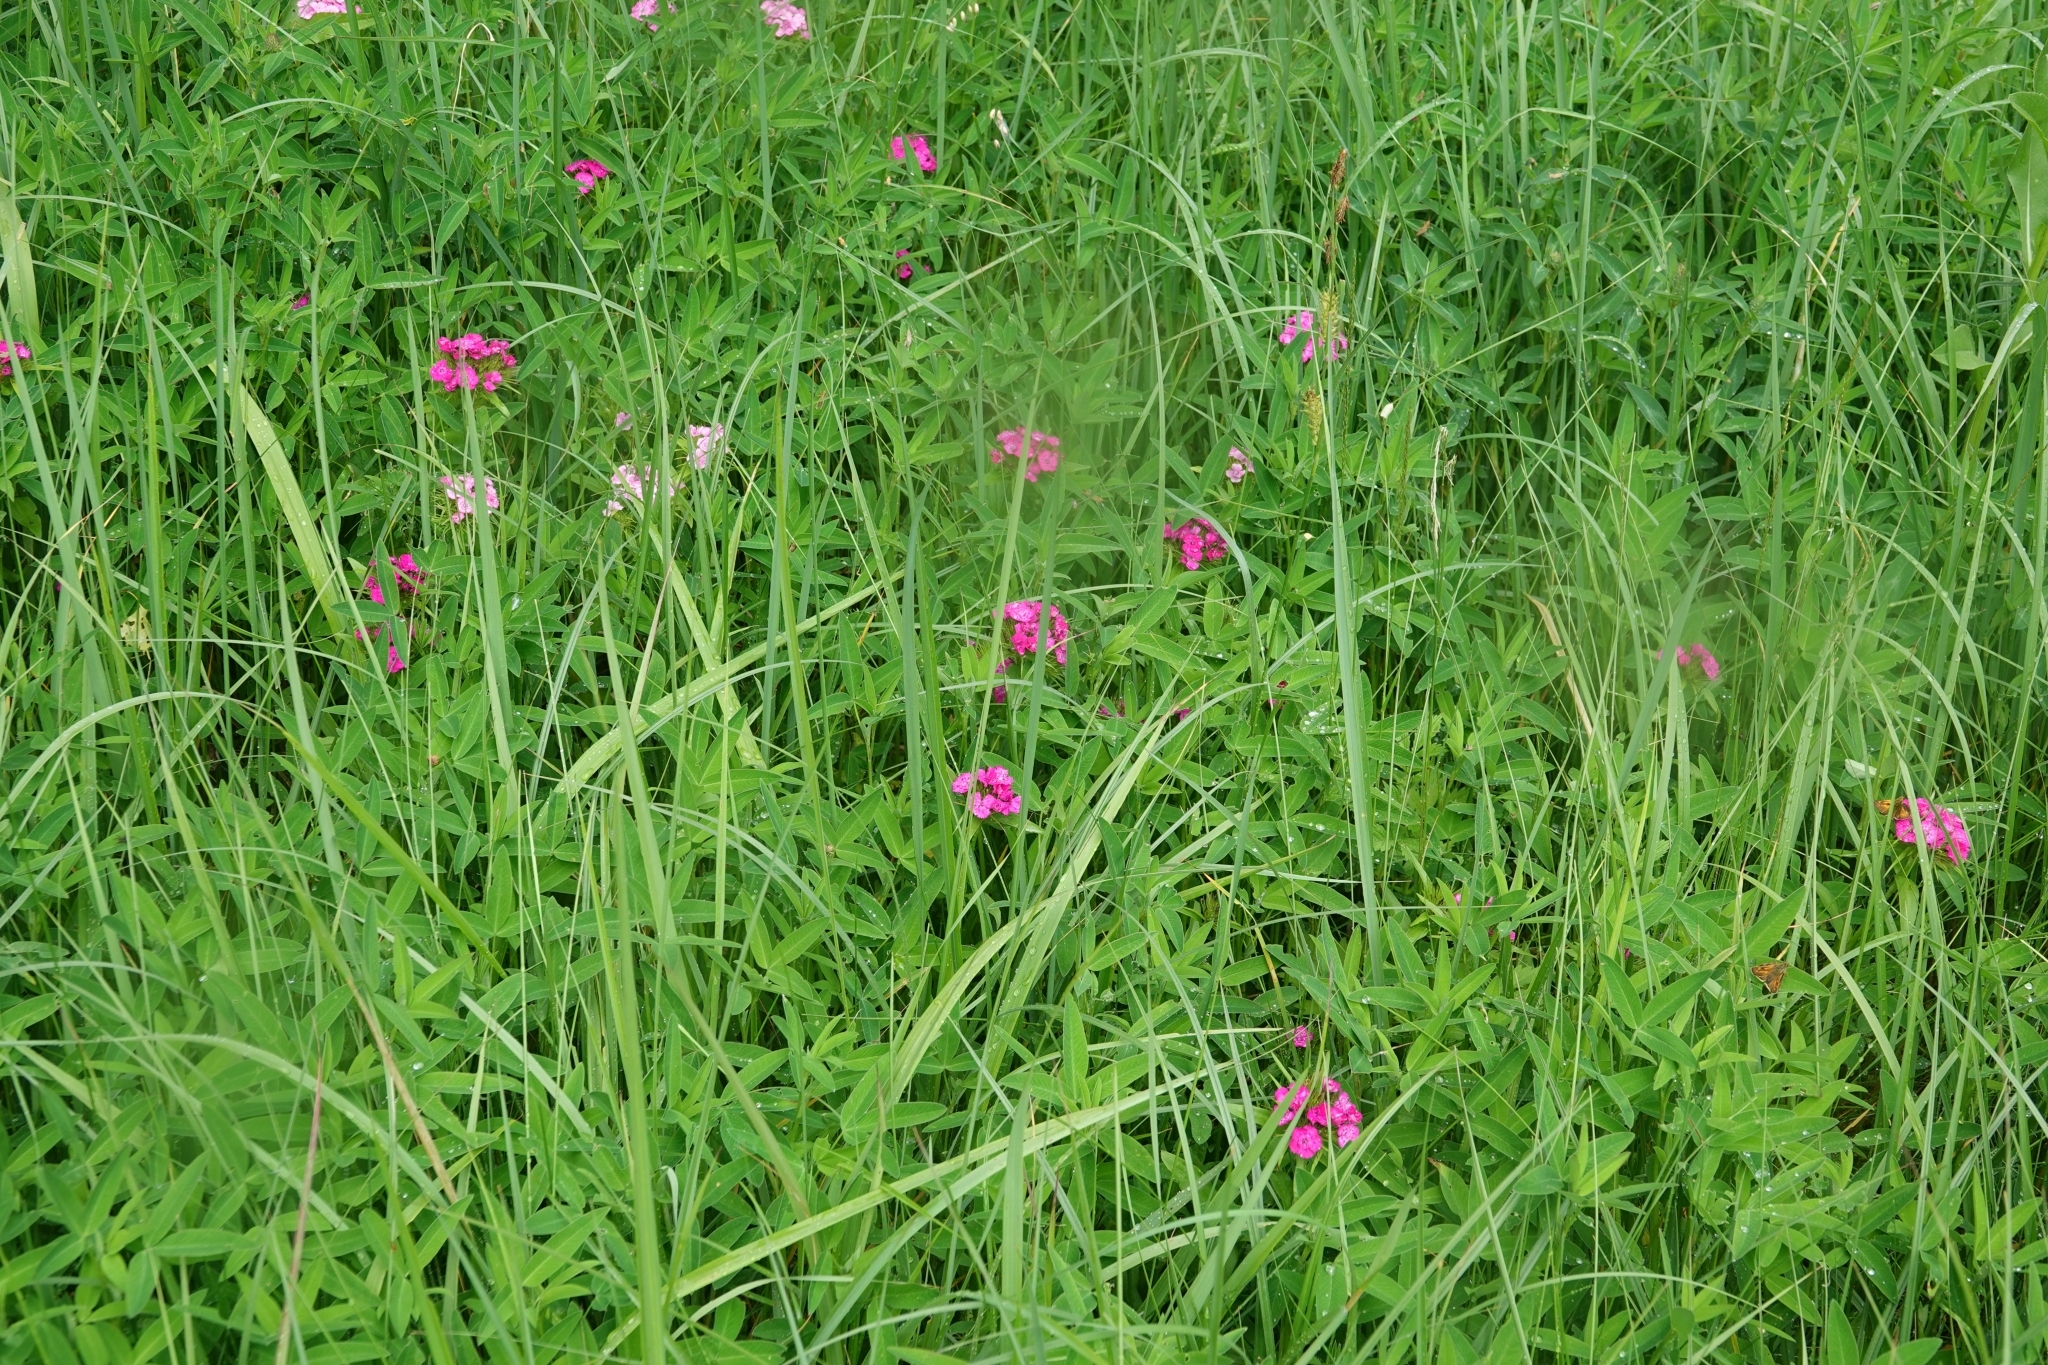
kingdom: Plantae
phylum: Tracheophyta
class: Magnoliopsida
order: Caryophyllales
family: Caryophyllaceae
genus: Dianthus
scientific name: Dianthus barbatus
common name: Sweet-william
